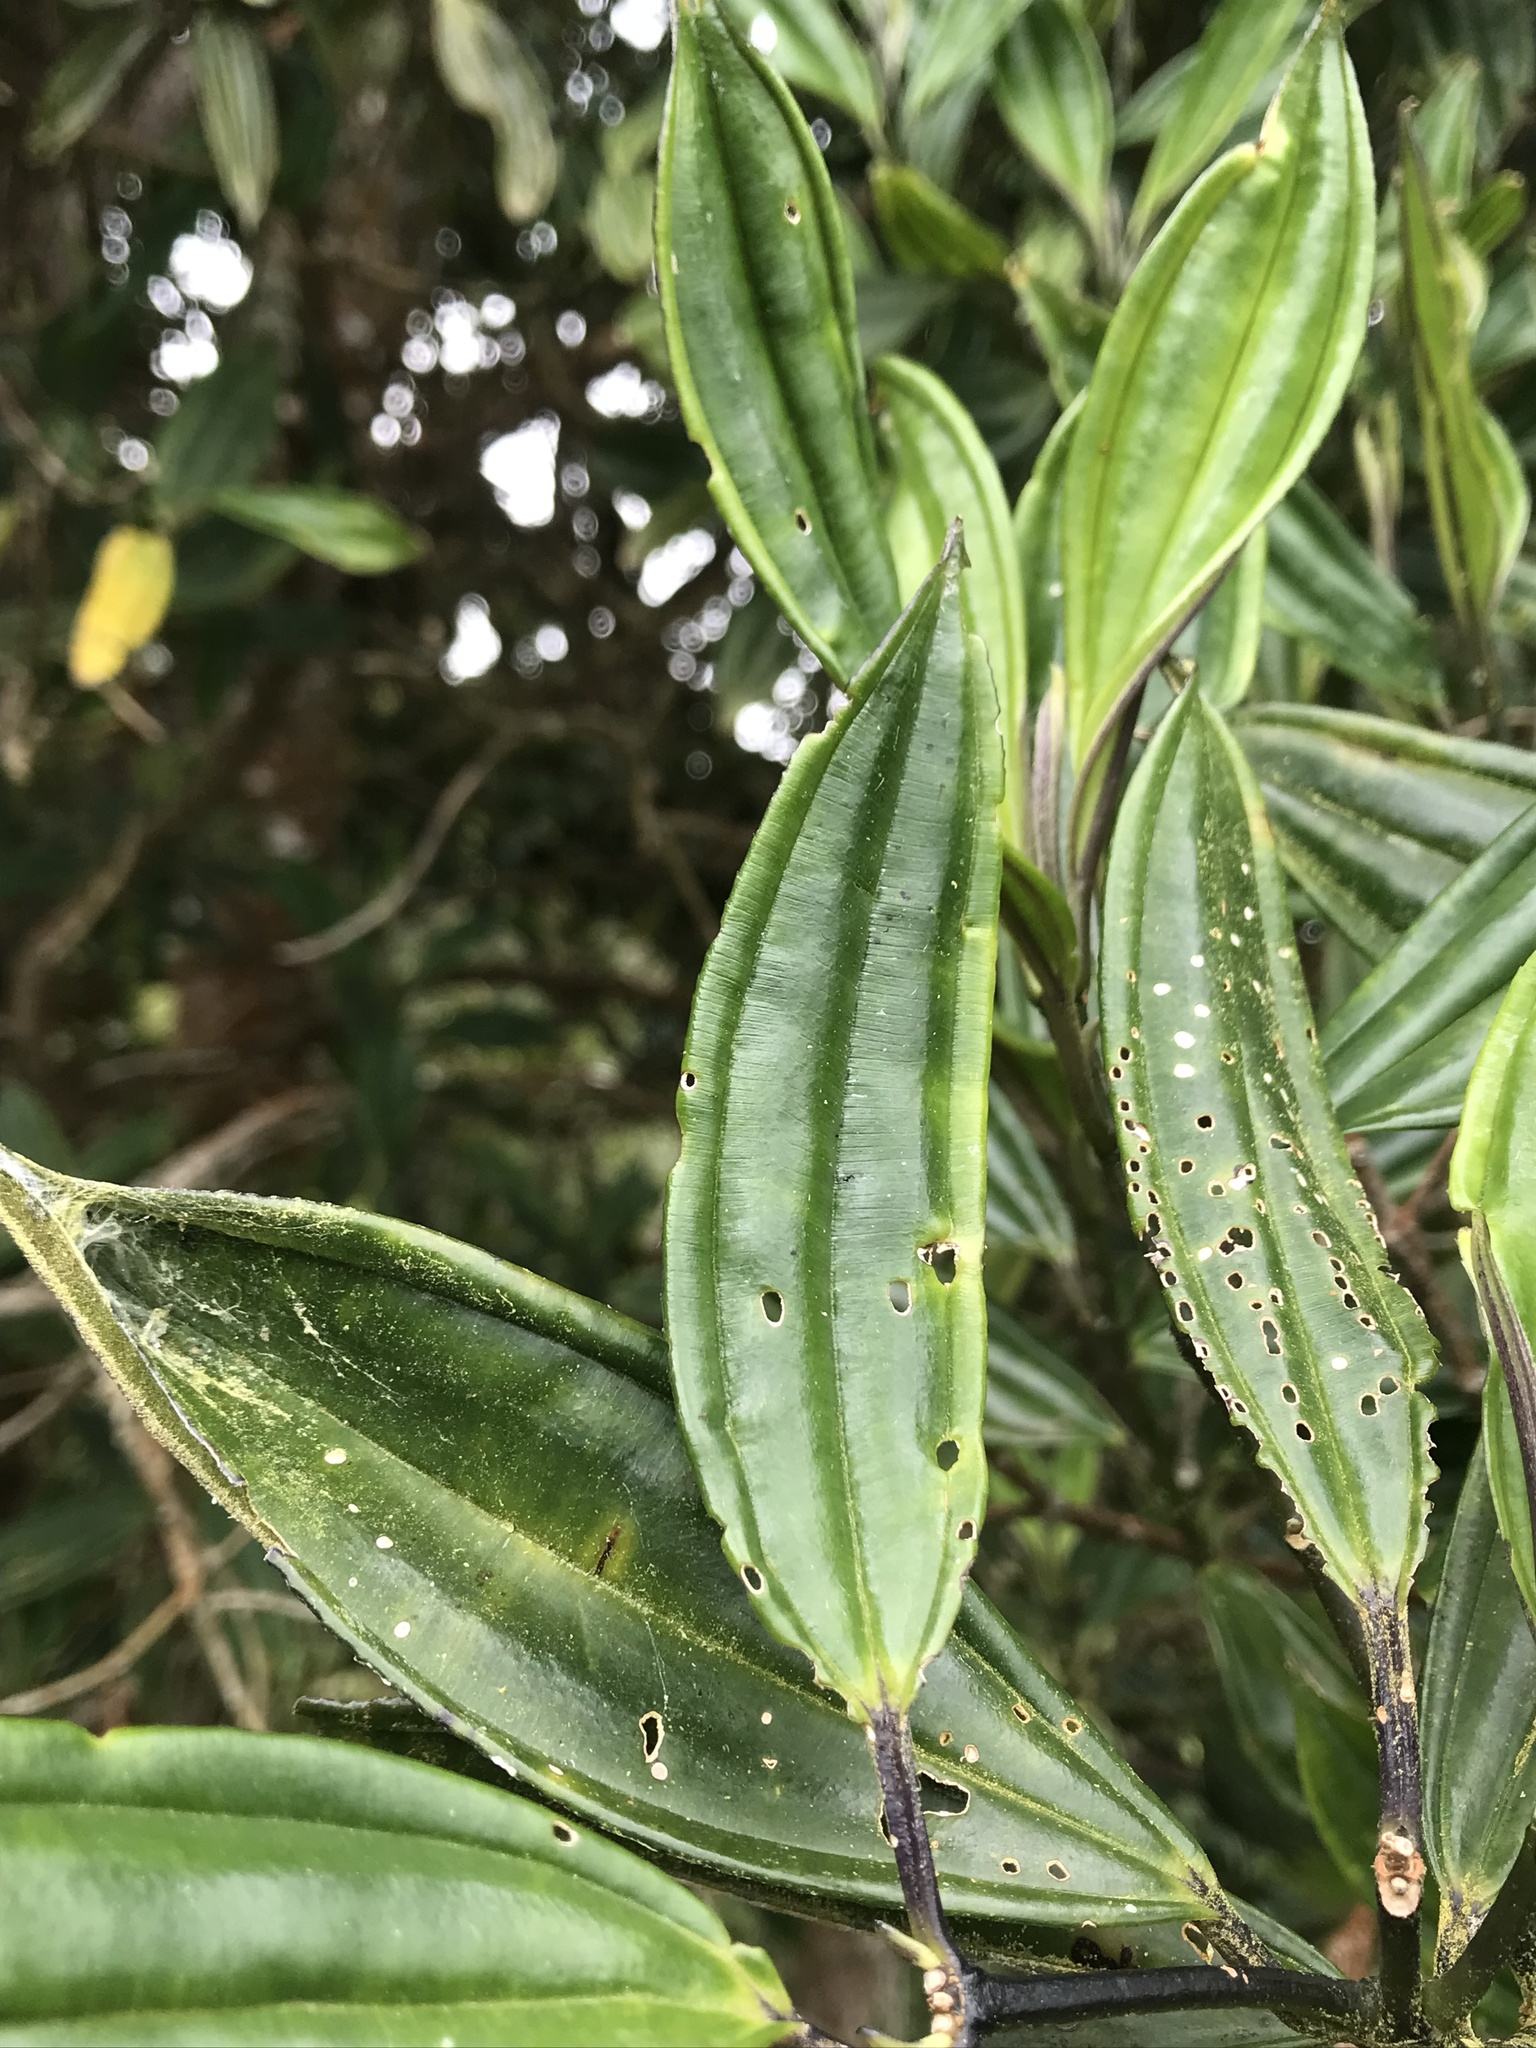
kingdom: Plantae
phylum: Tracheophyta
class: Magnoliopsida
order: Myrtales
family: Melastomataceae
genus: Meriania
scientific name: Meriania speciosa
